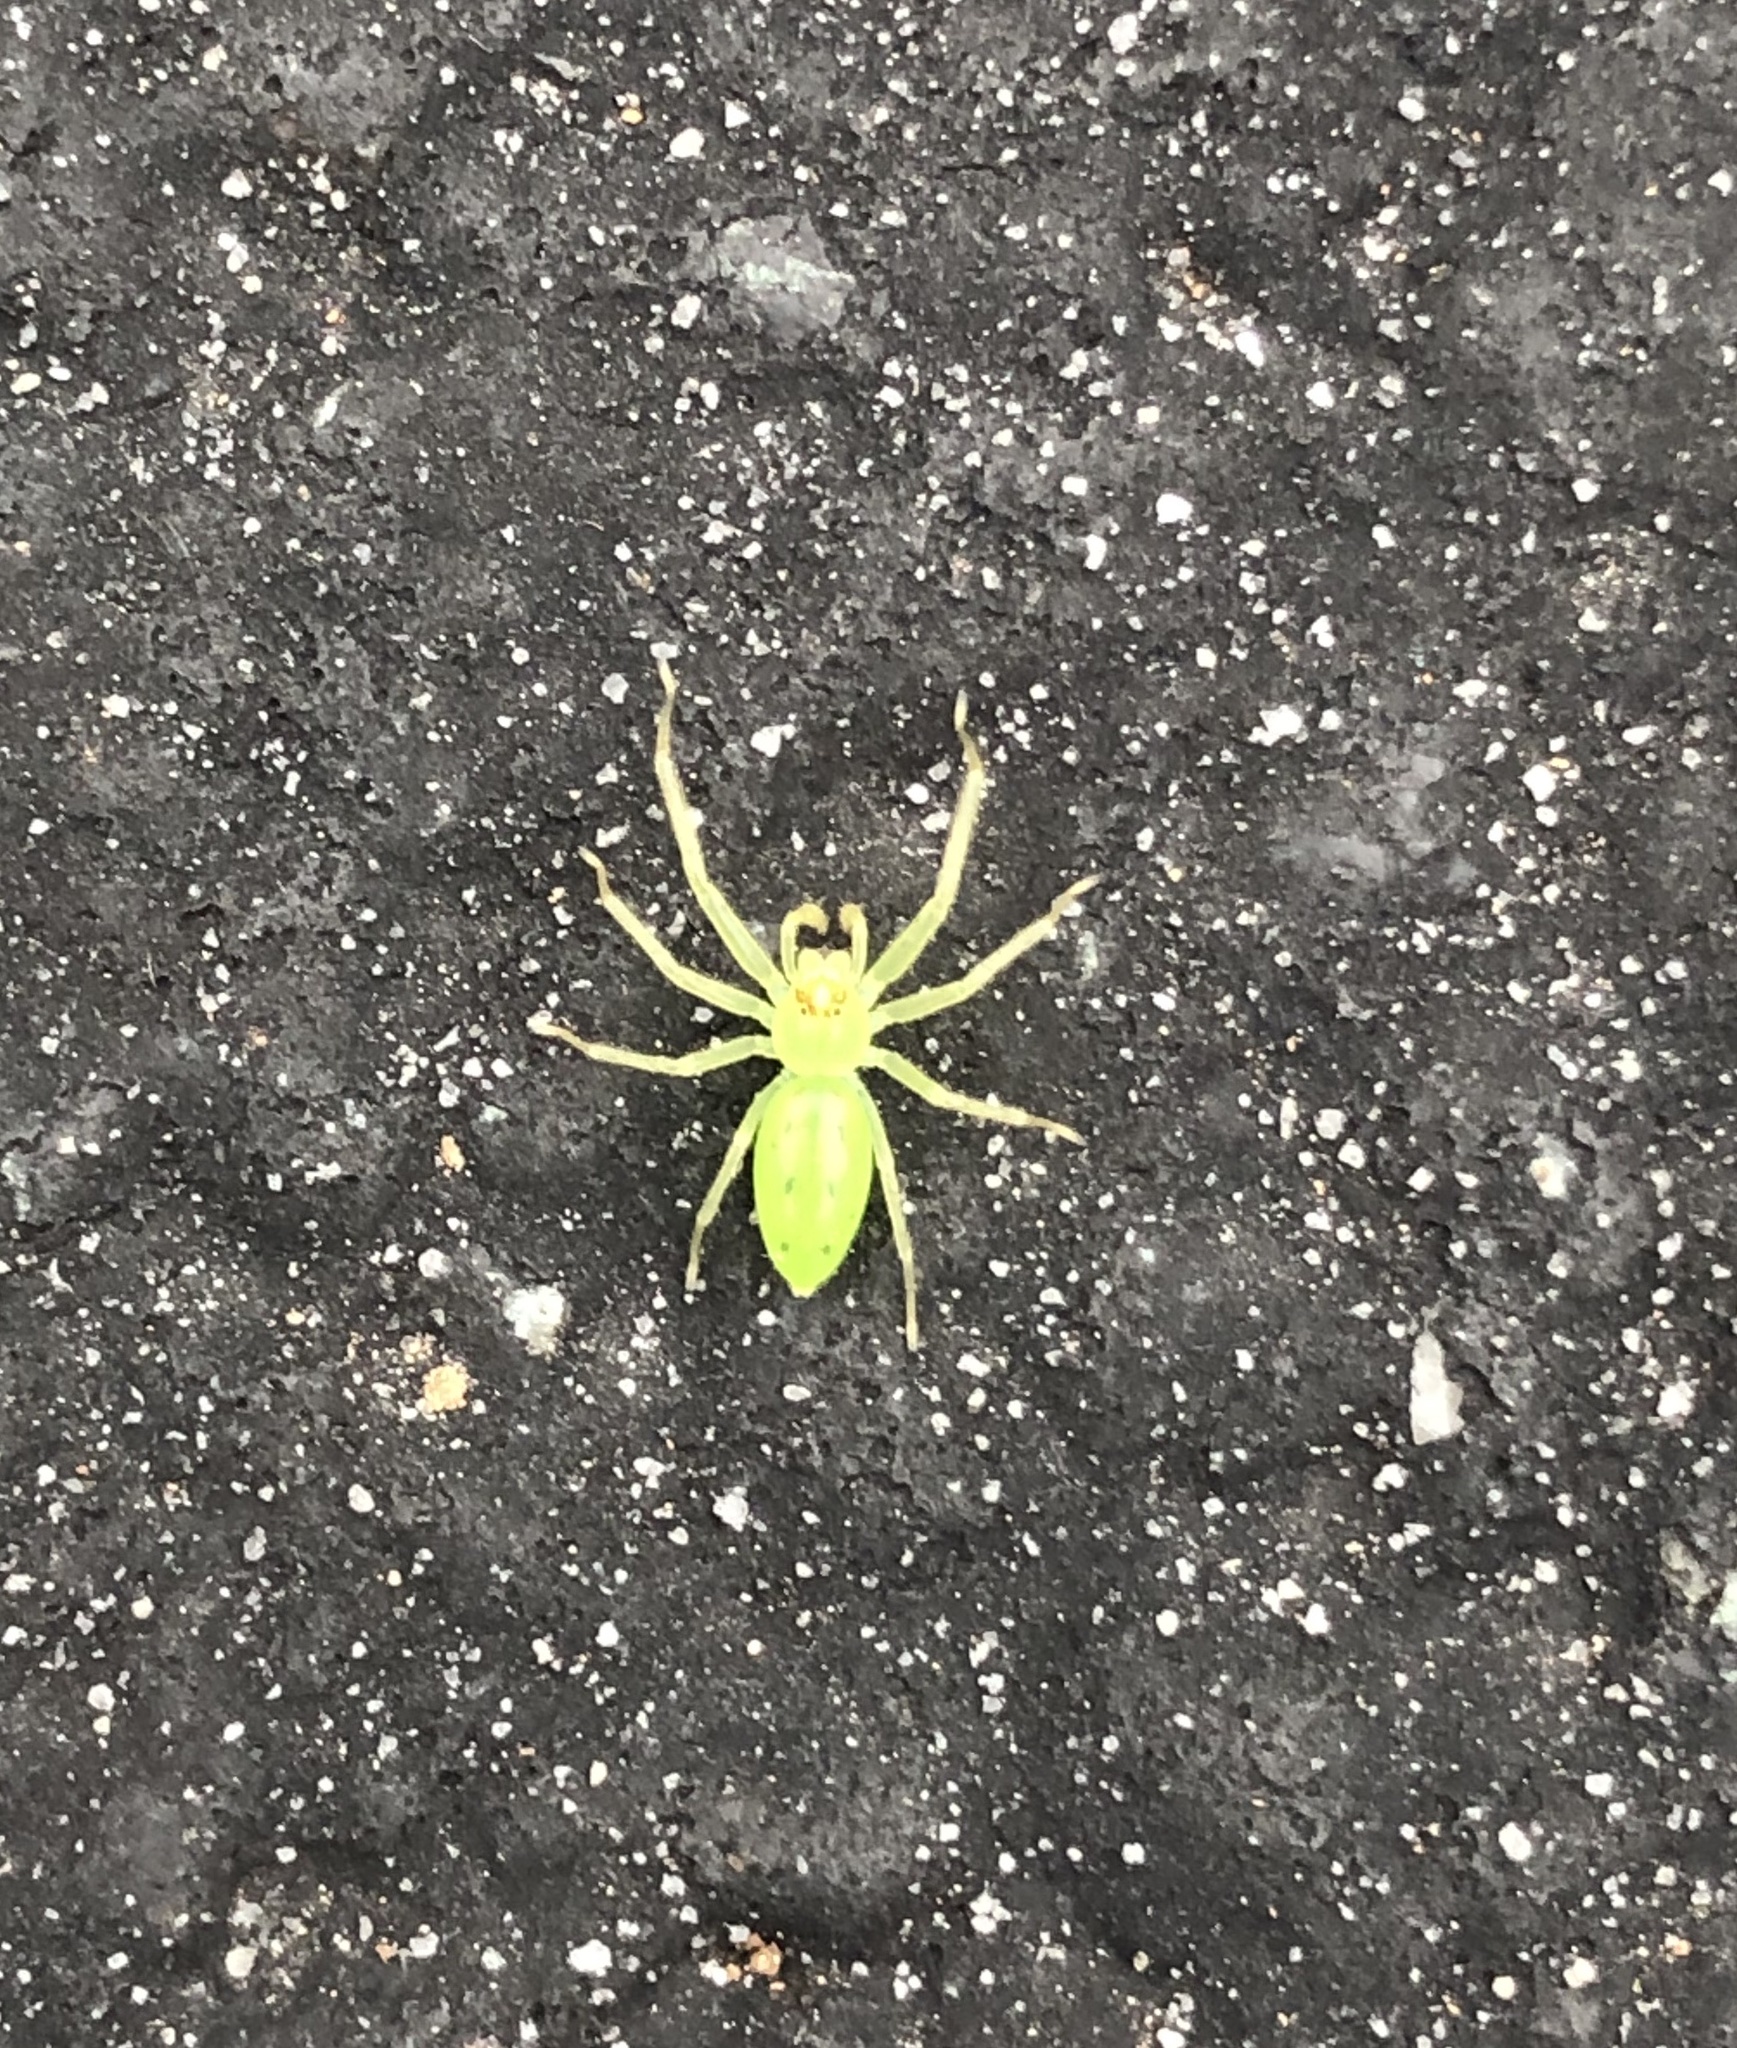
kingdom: Animalia
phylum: Arthropoda
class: Arachnida
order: Araneae
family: Salticidae
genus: Lyssomanes
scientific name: Lyssomanes viridis
